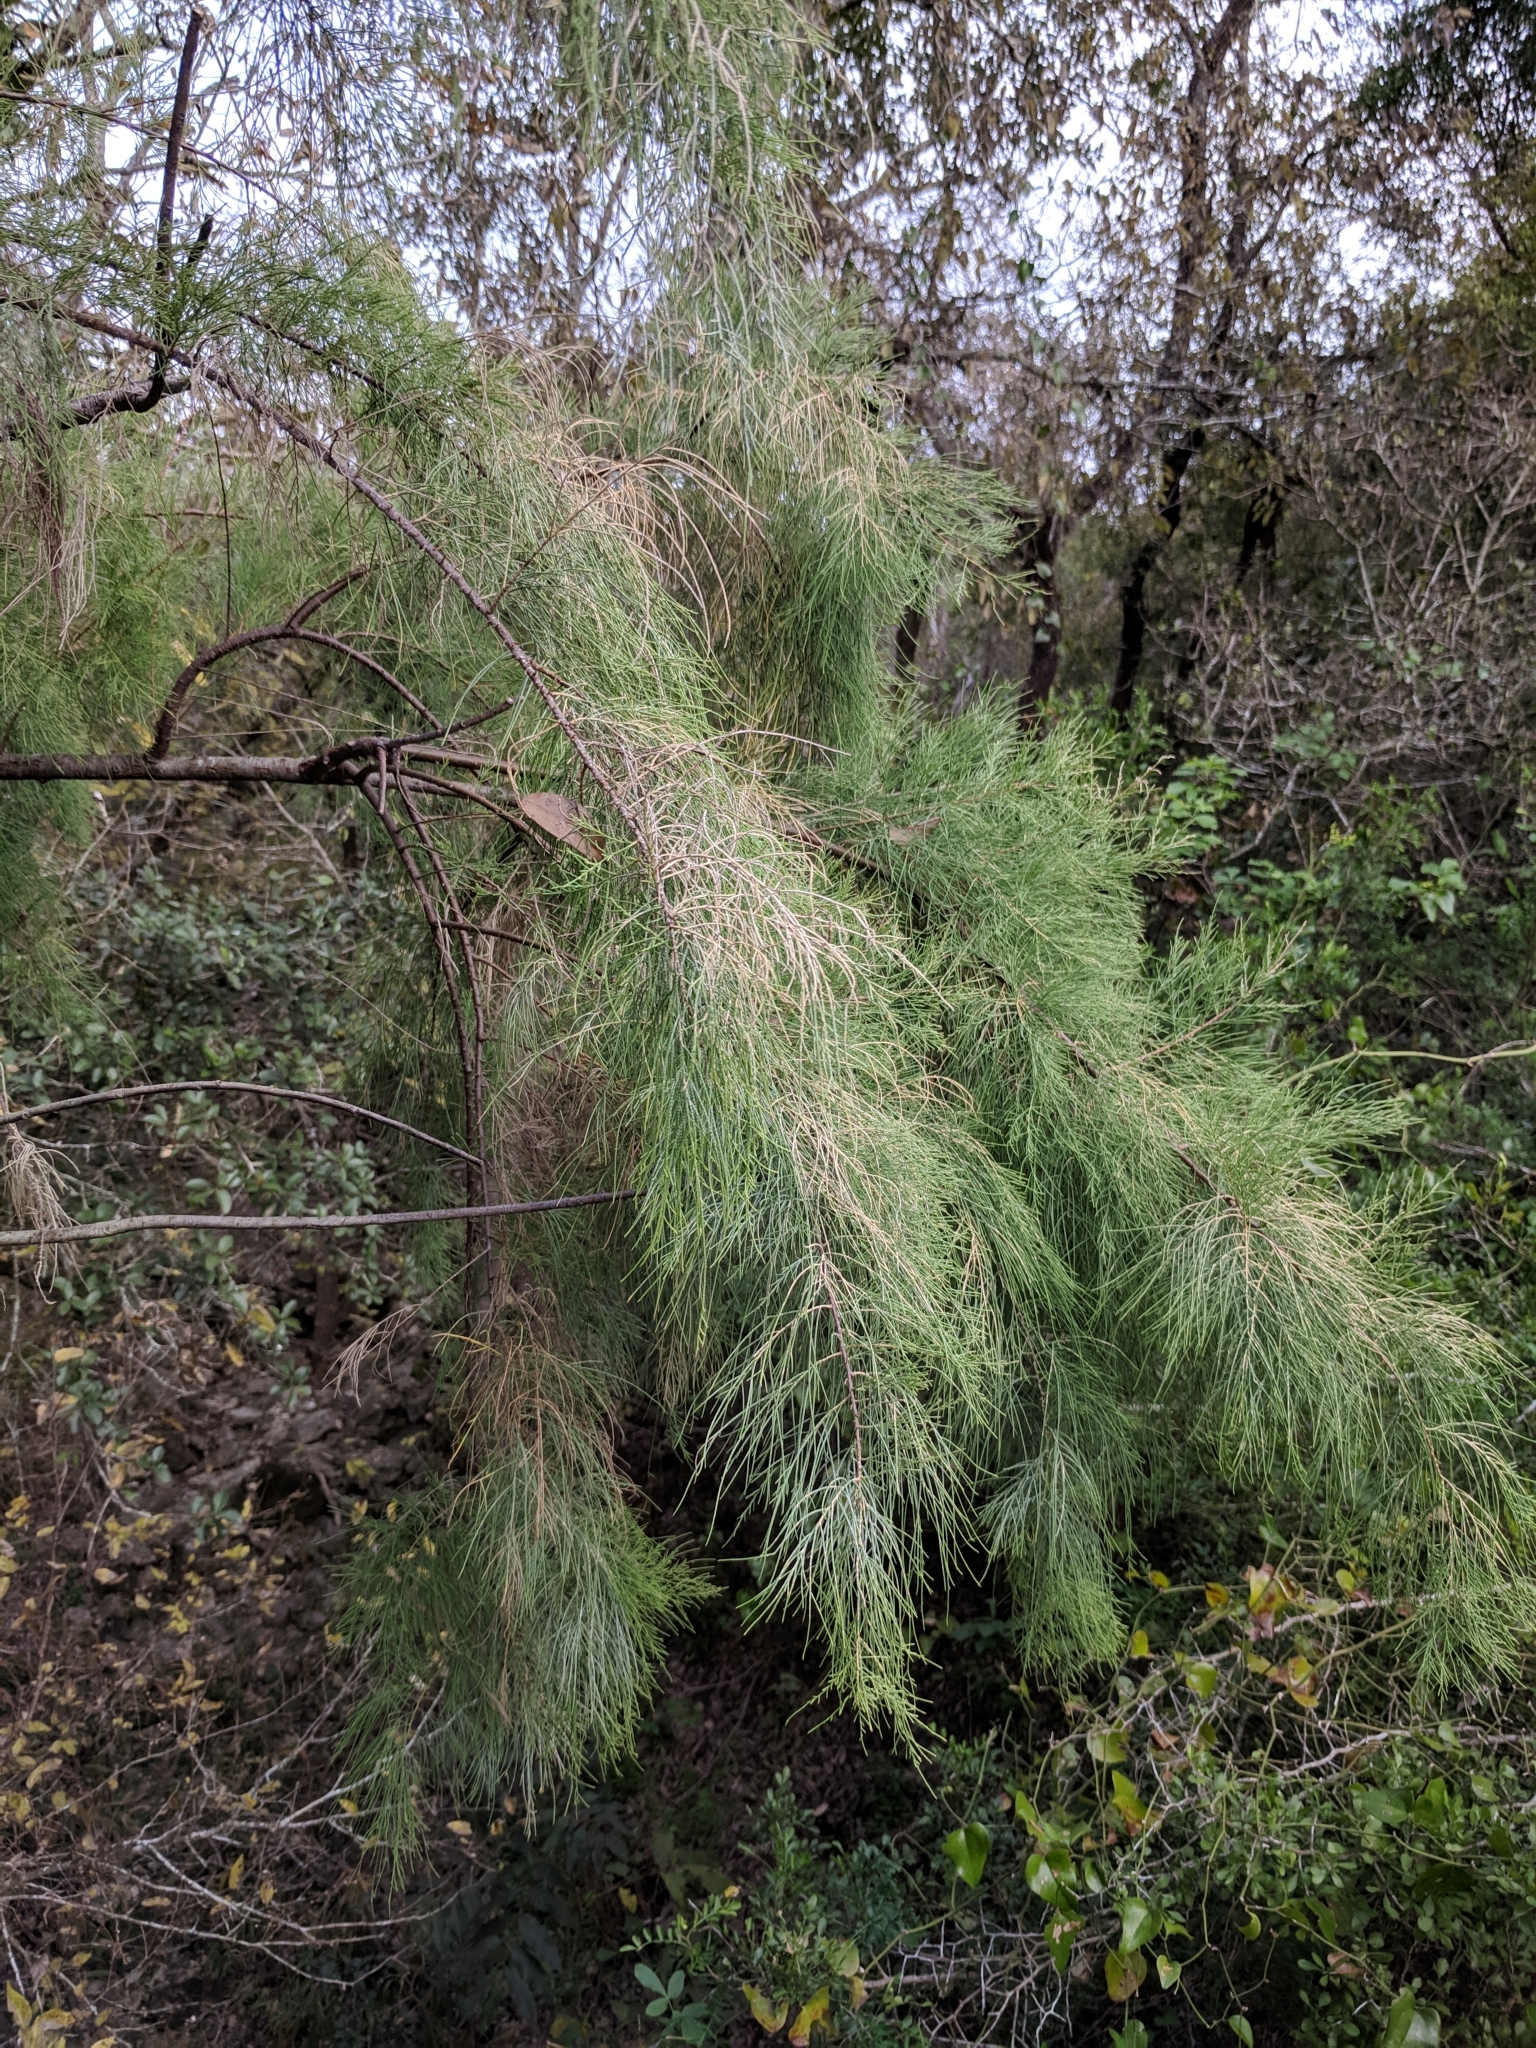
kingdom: Plantae
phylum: Tracheophyta
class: Magnoliopsida
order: Caryophyllales
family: Tamaricaceae
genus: Tamarix
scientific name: Tamarix aphylla
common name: Athel tamarisk
